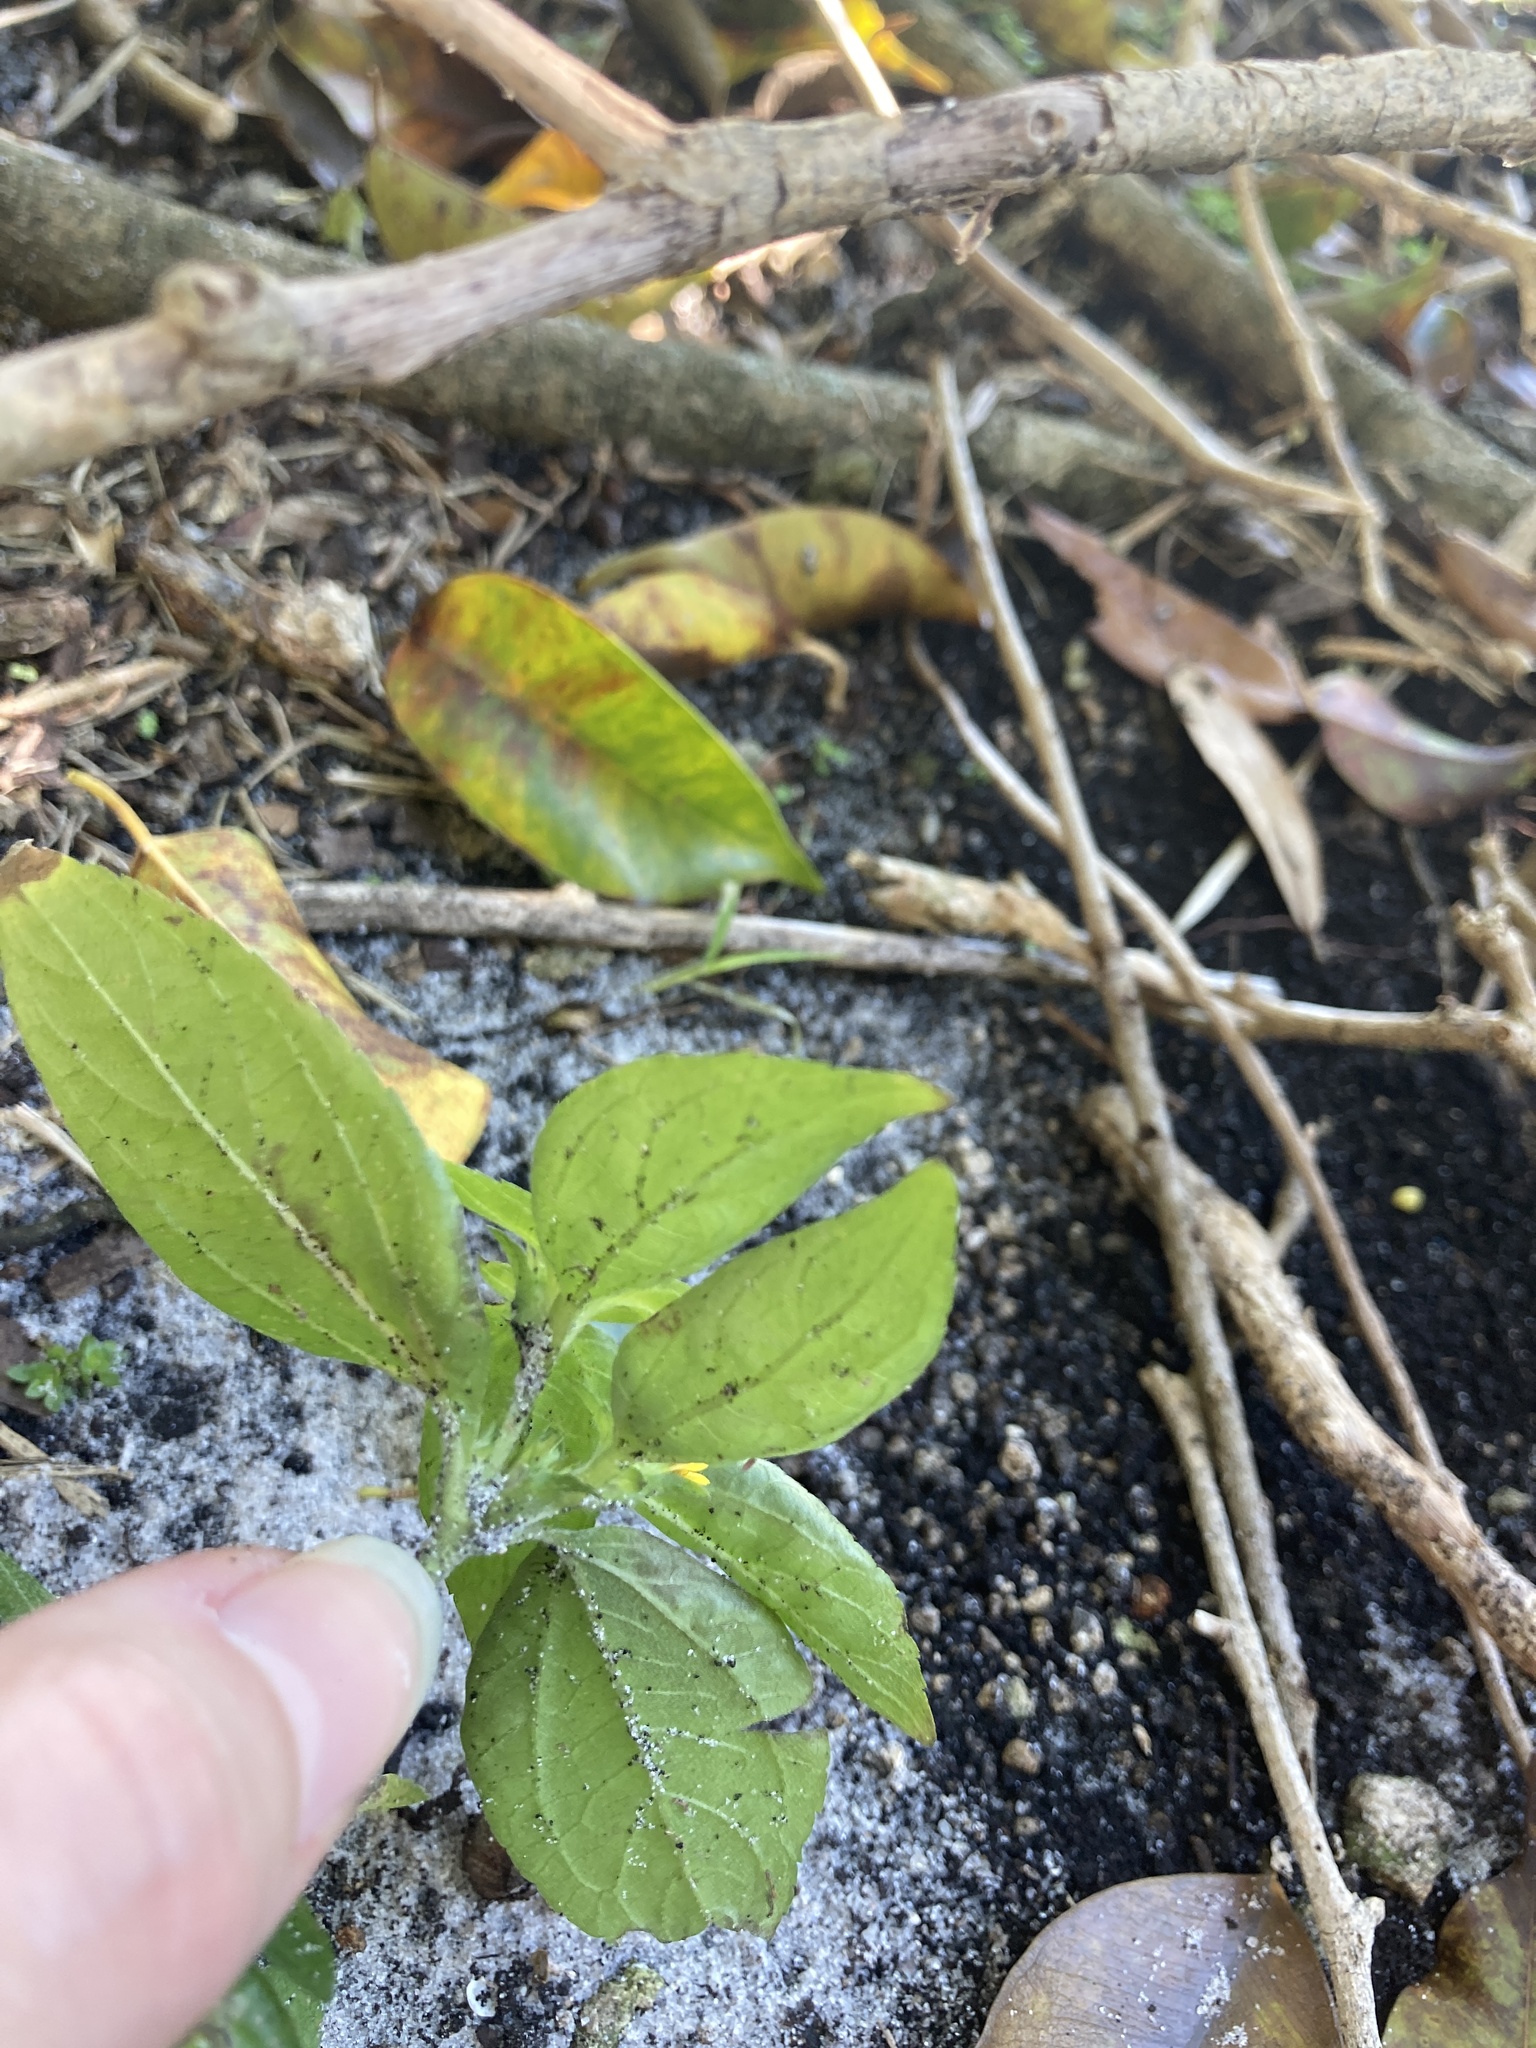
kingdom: Plantae
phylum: Tracheophyta
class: Magnoliopsida
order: Asterales
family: Asteraceae
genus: Synedrella
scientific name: Synedrella nodiflora
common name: Nodeweed
